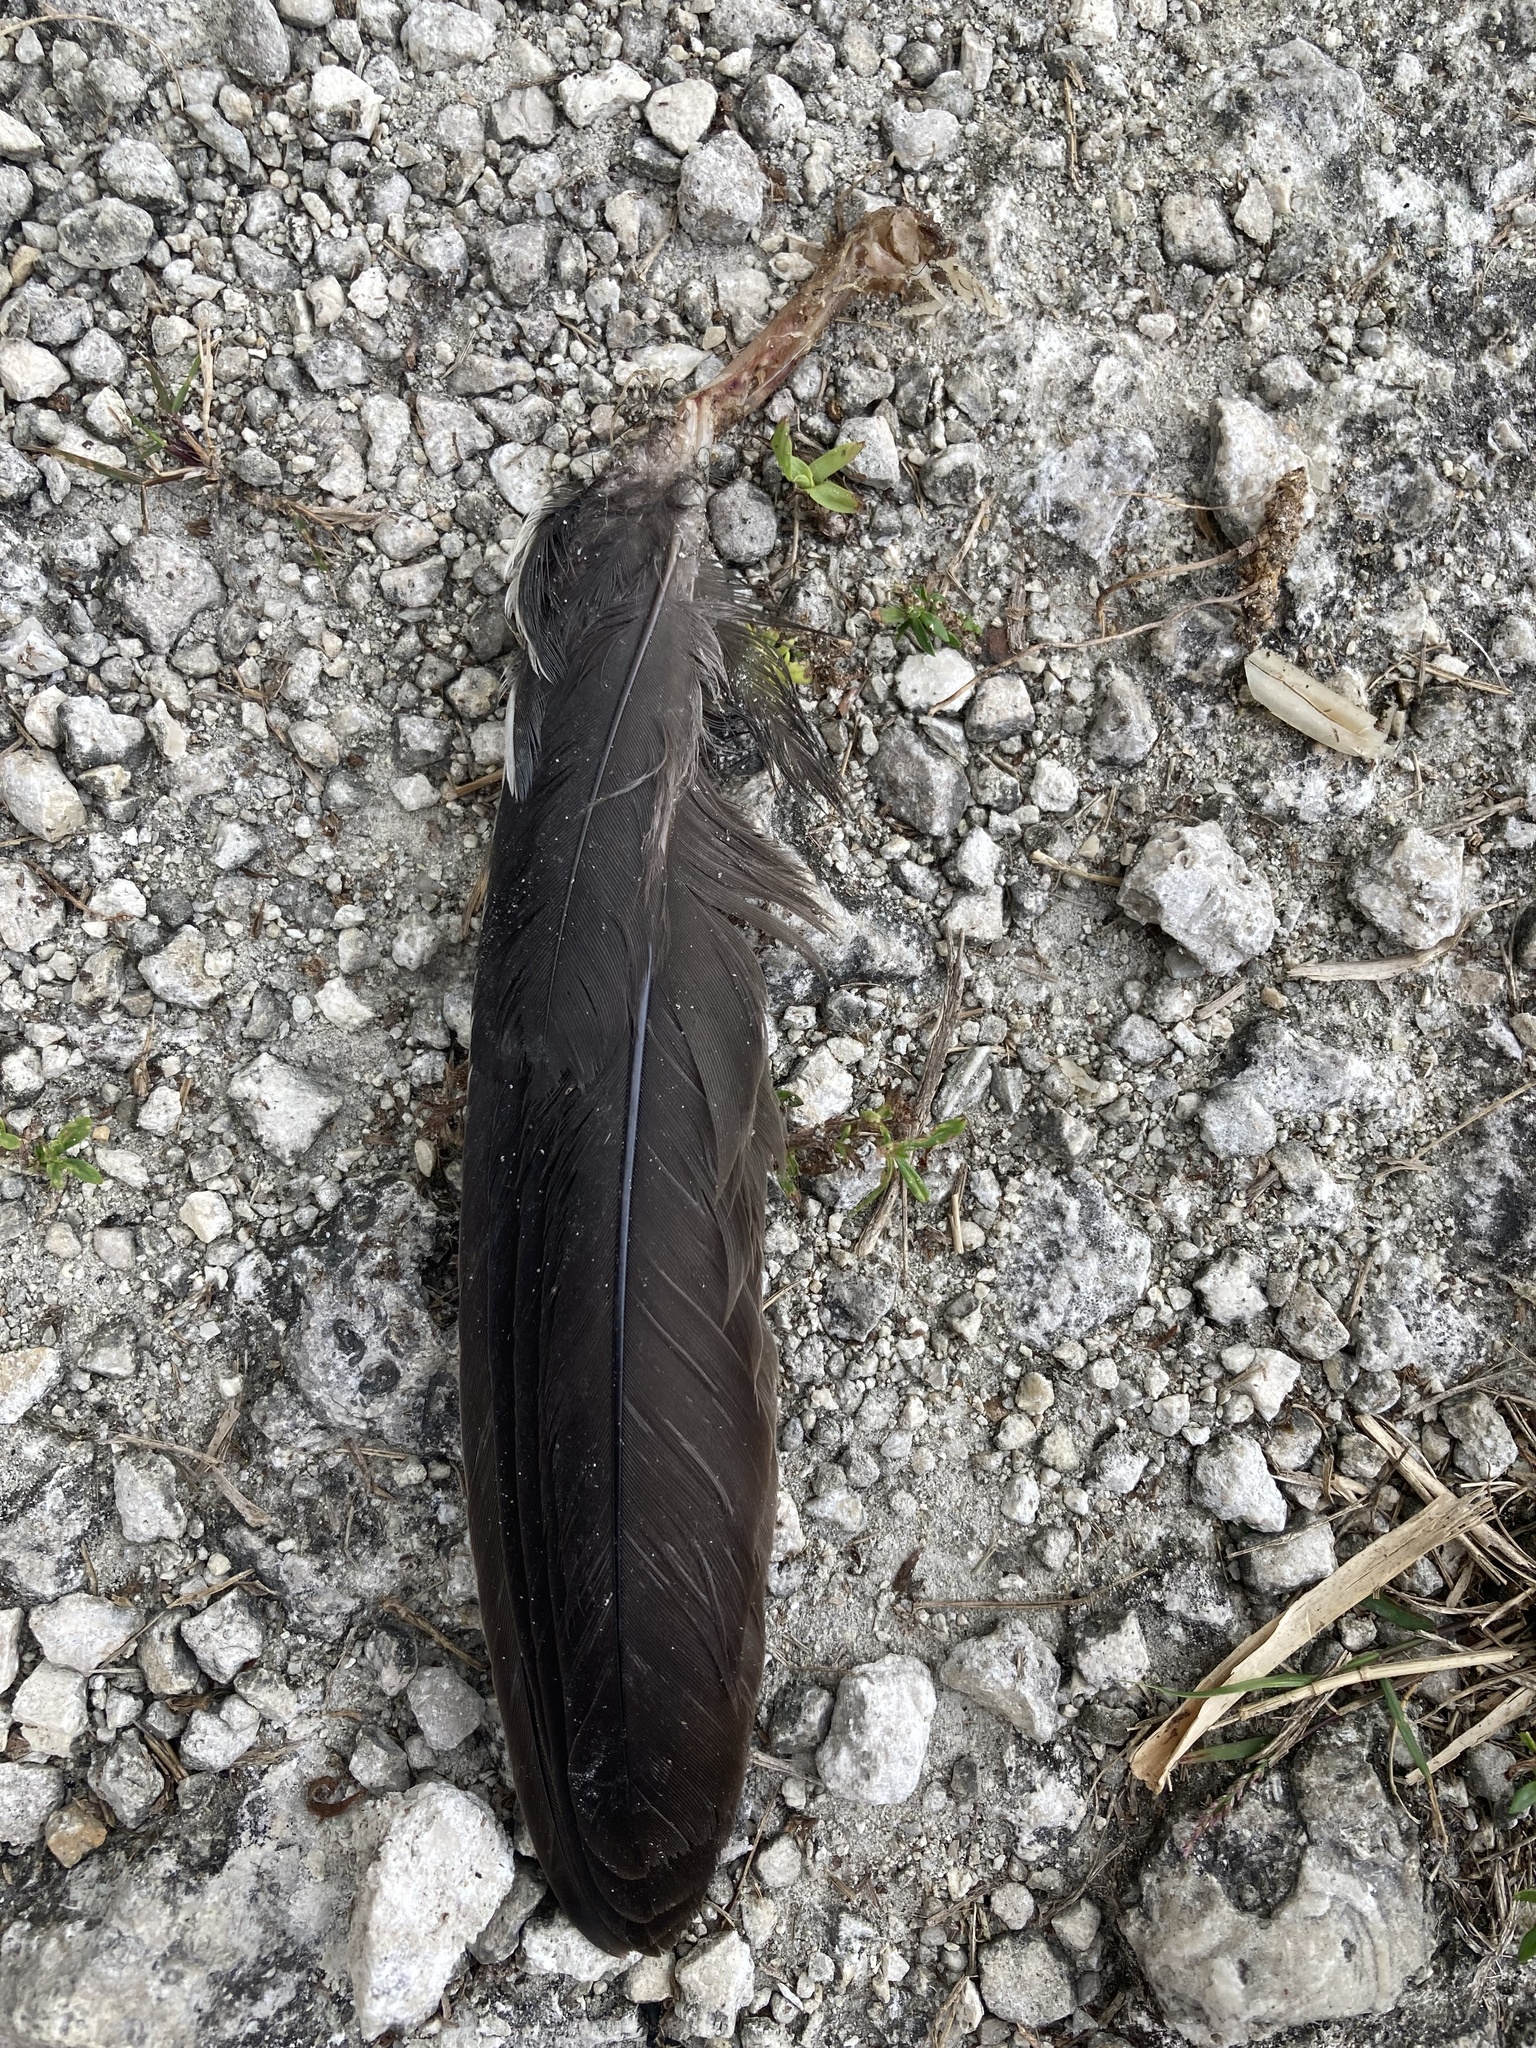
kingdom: Animalia
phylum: Chordata
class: Aves
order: Gruiformes
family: Rallidae
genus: Gallinula
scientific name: Gallinula chloropus
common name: Common moorhen
